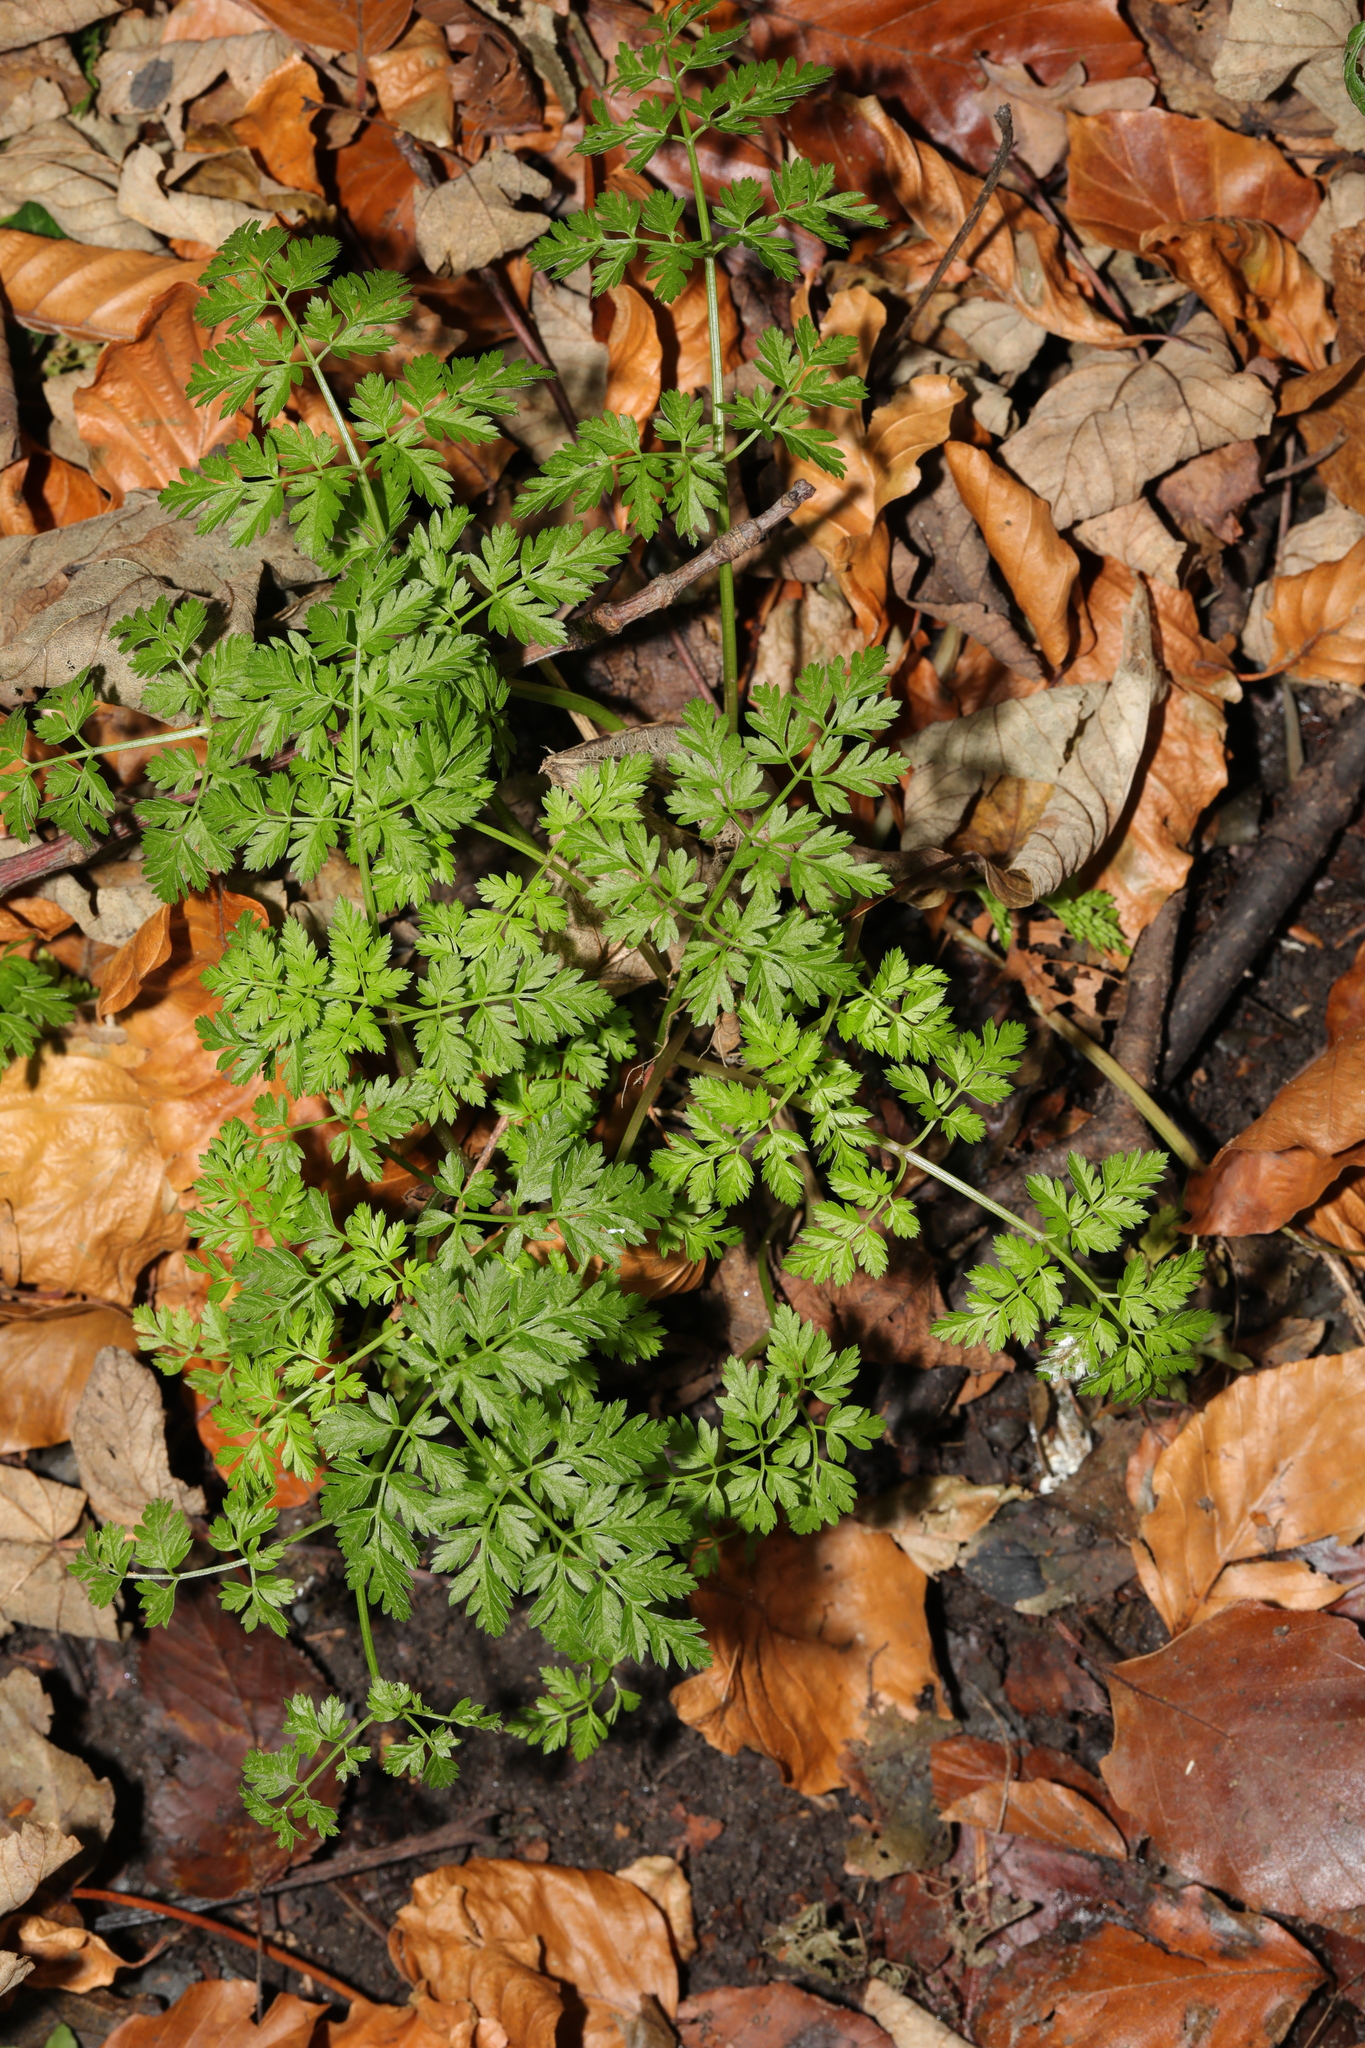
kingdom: Plantae
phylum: Tracheophyta
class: Magnoliopsida
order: Apiales
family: Apiaceae
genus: Anthriscus
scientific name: Anthriscus sylvestris
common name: Cow parsley
